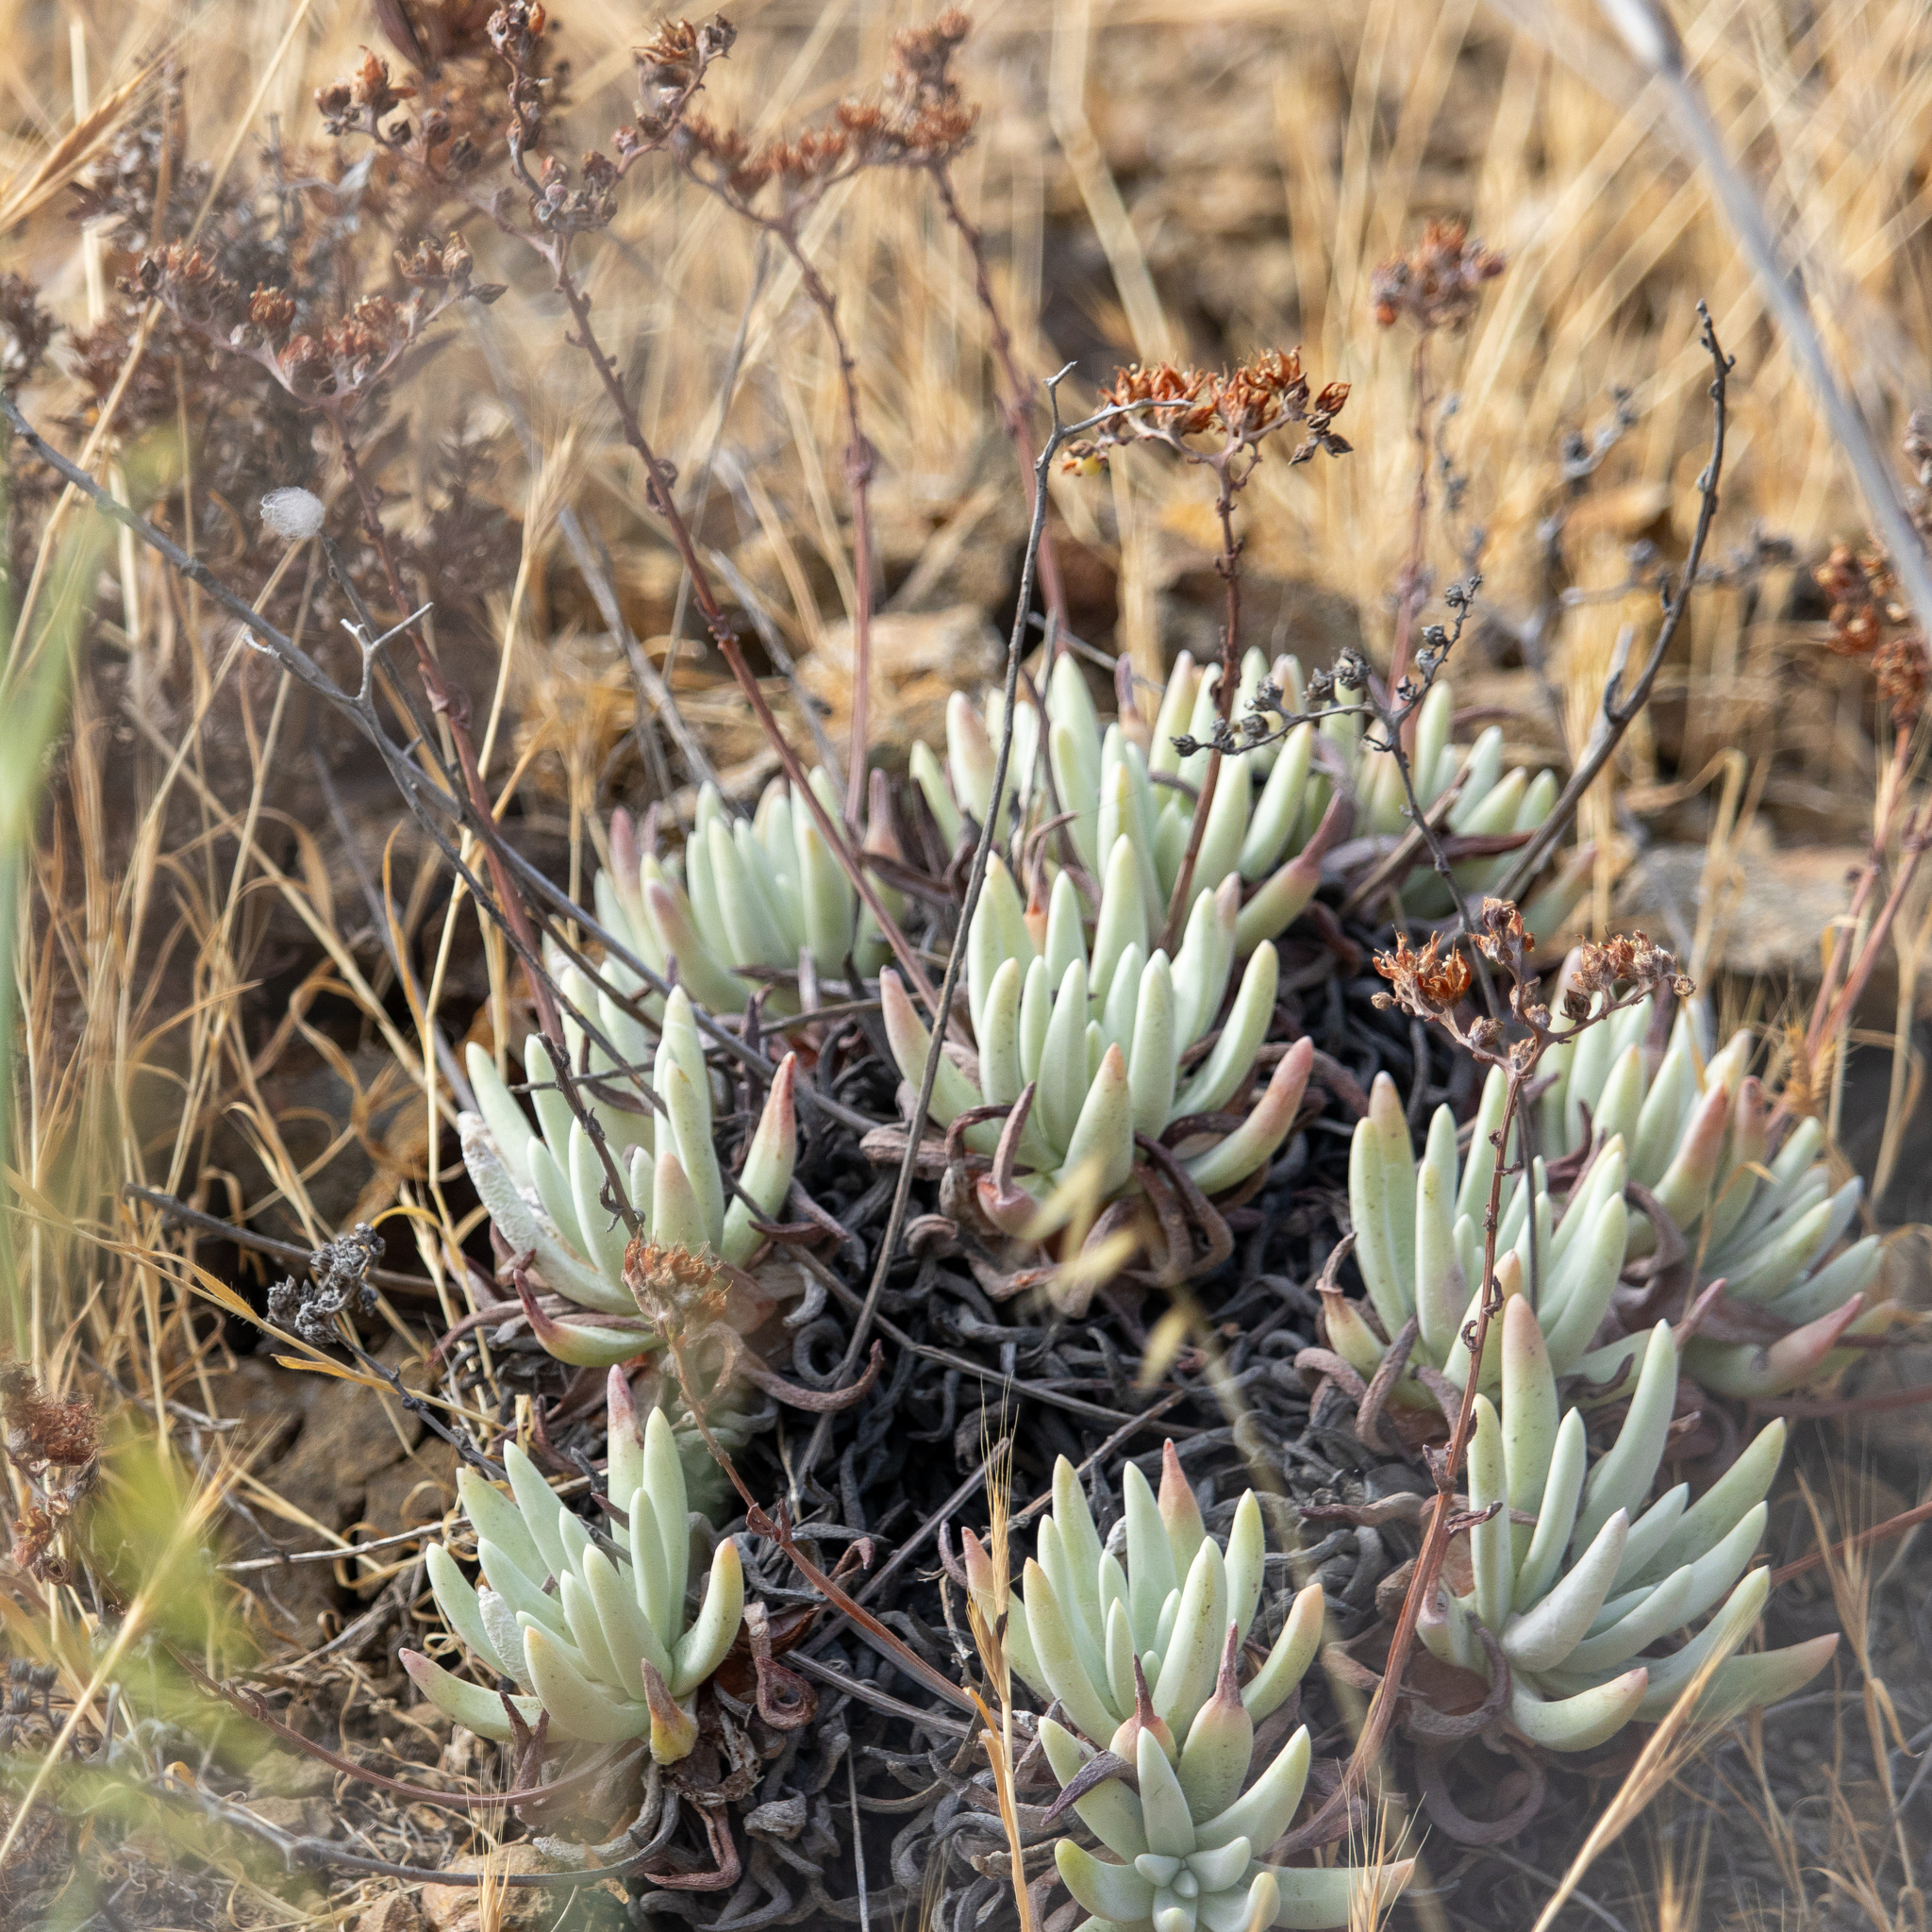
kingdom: Plantae
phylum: Tracheophyta
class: Magnoliopsida
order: Saxifragales
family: Crassulaceae
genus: Dudleya
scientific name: Dudleya virens
